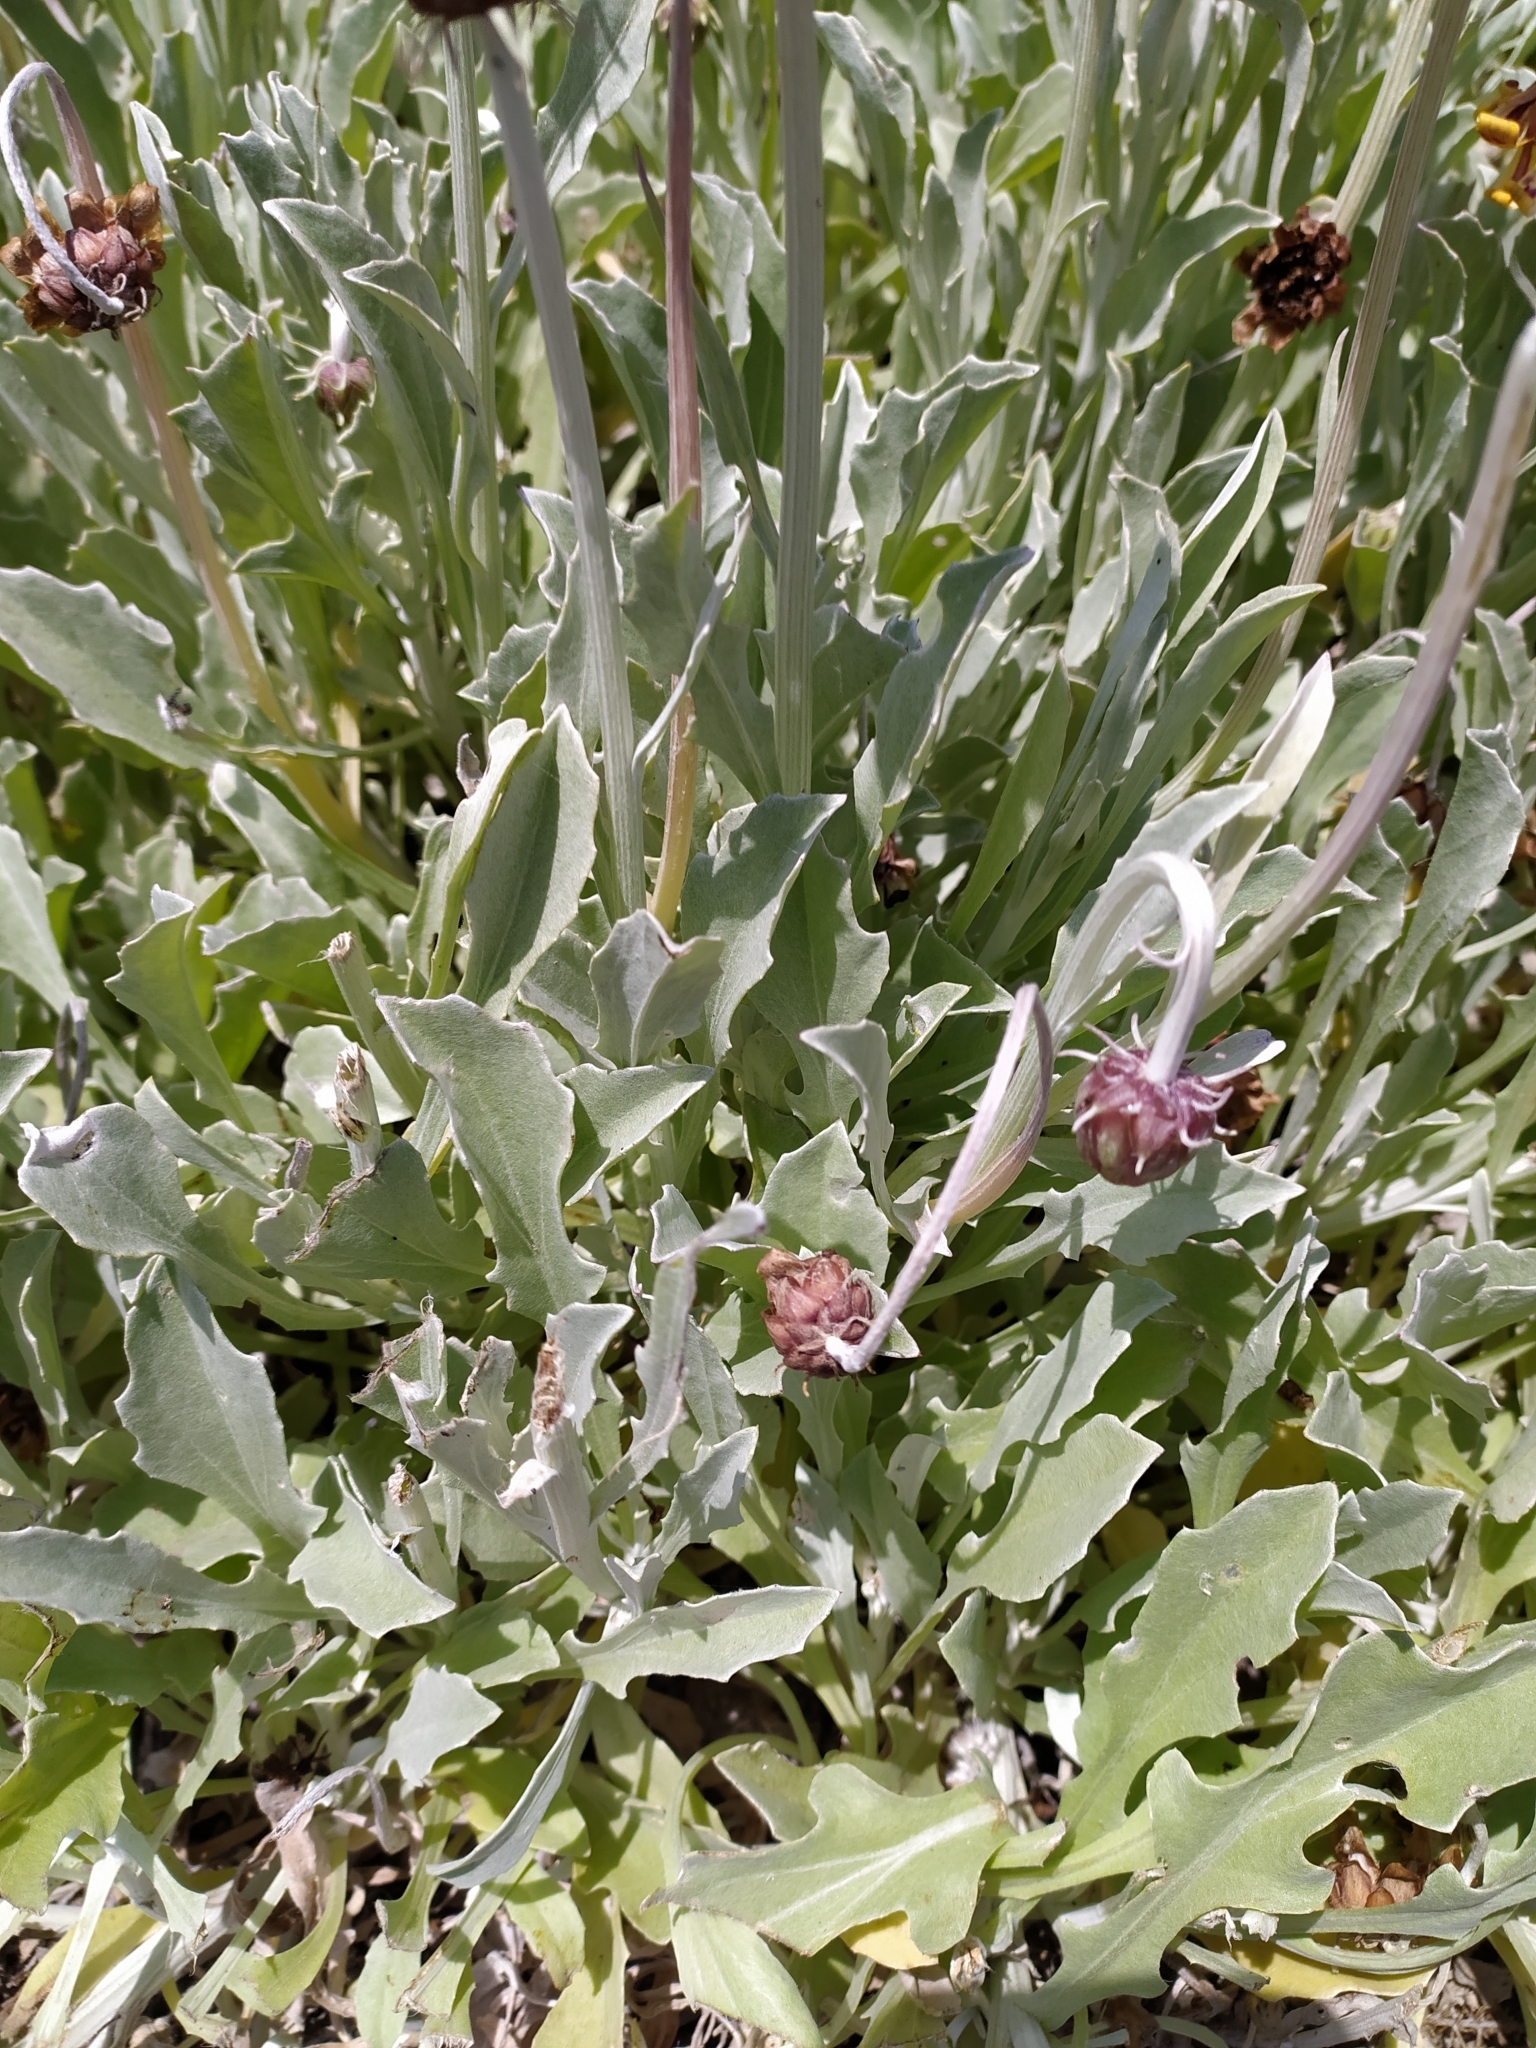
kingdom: Plantae
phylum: Tracheophyta
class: Magnoliopsida
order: Asterales
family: Asteraceae
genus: Arctotis
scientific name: Arctotis stoechadifolia
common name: African daisy
